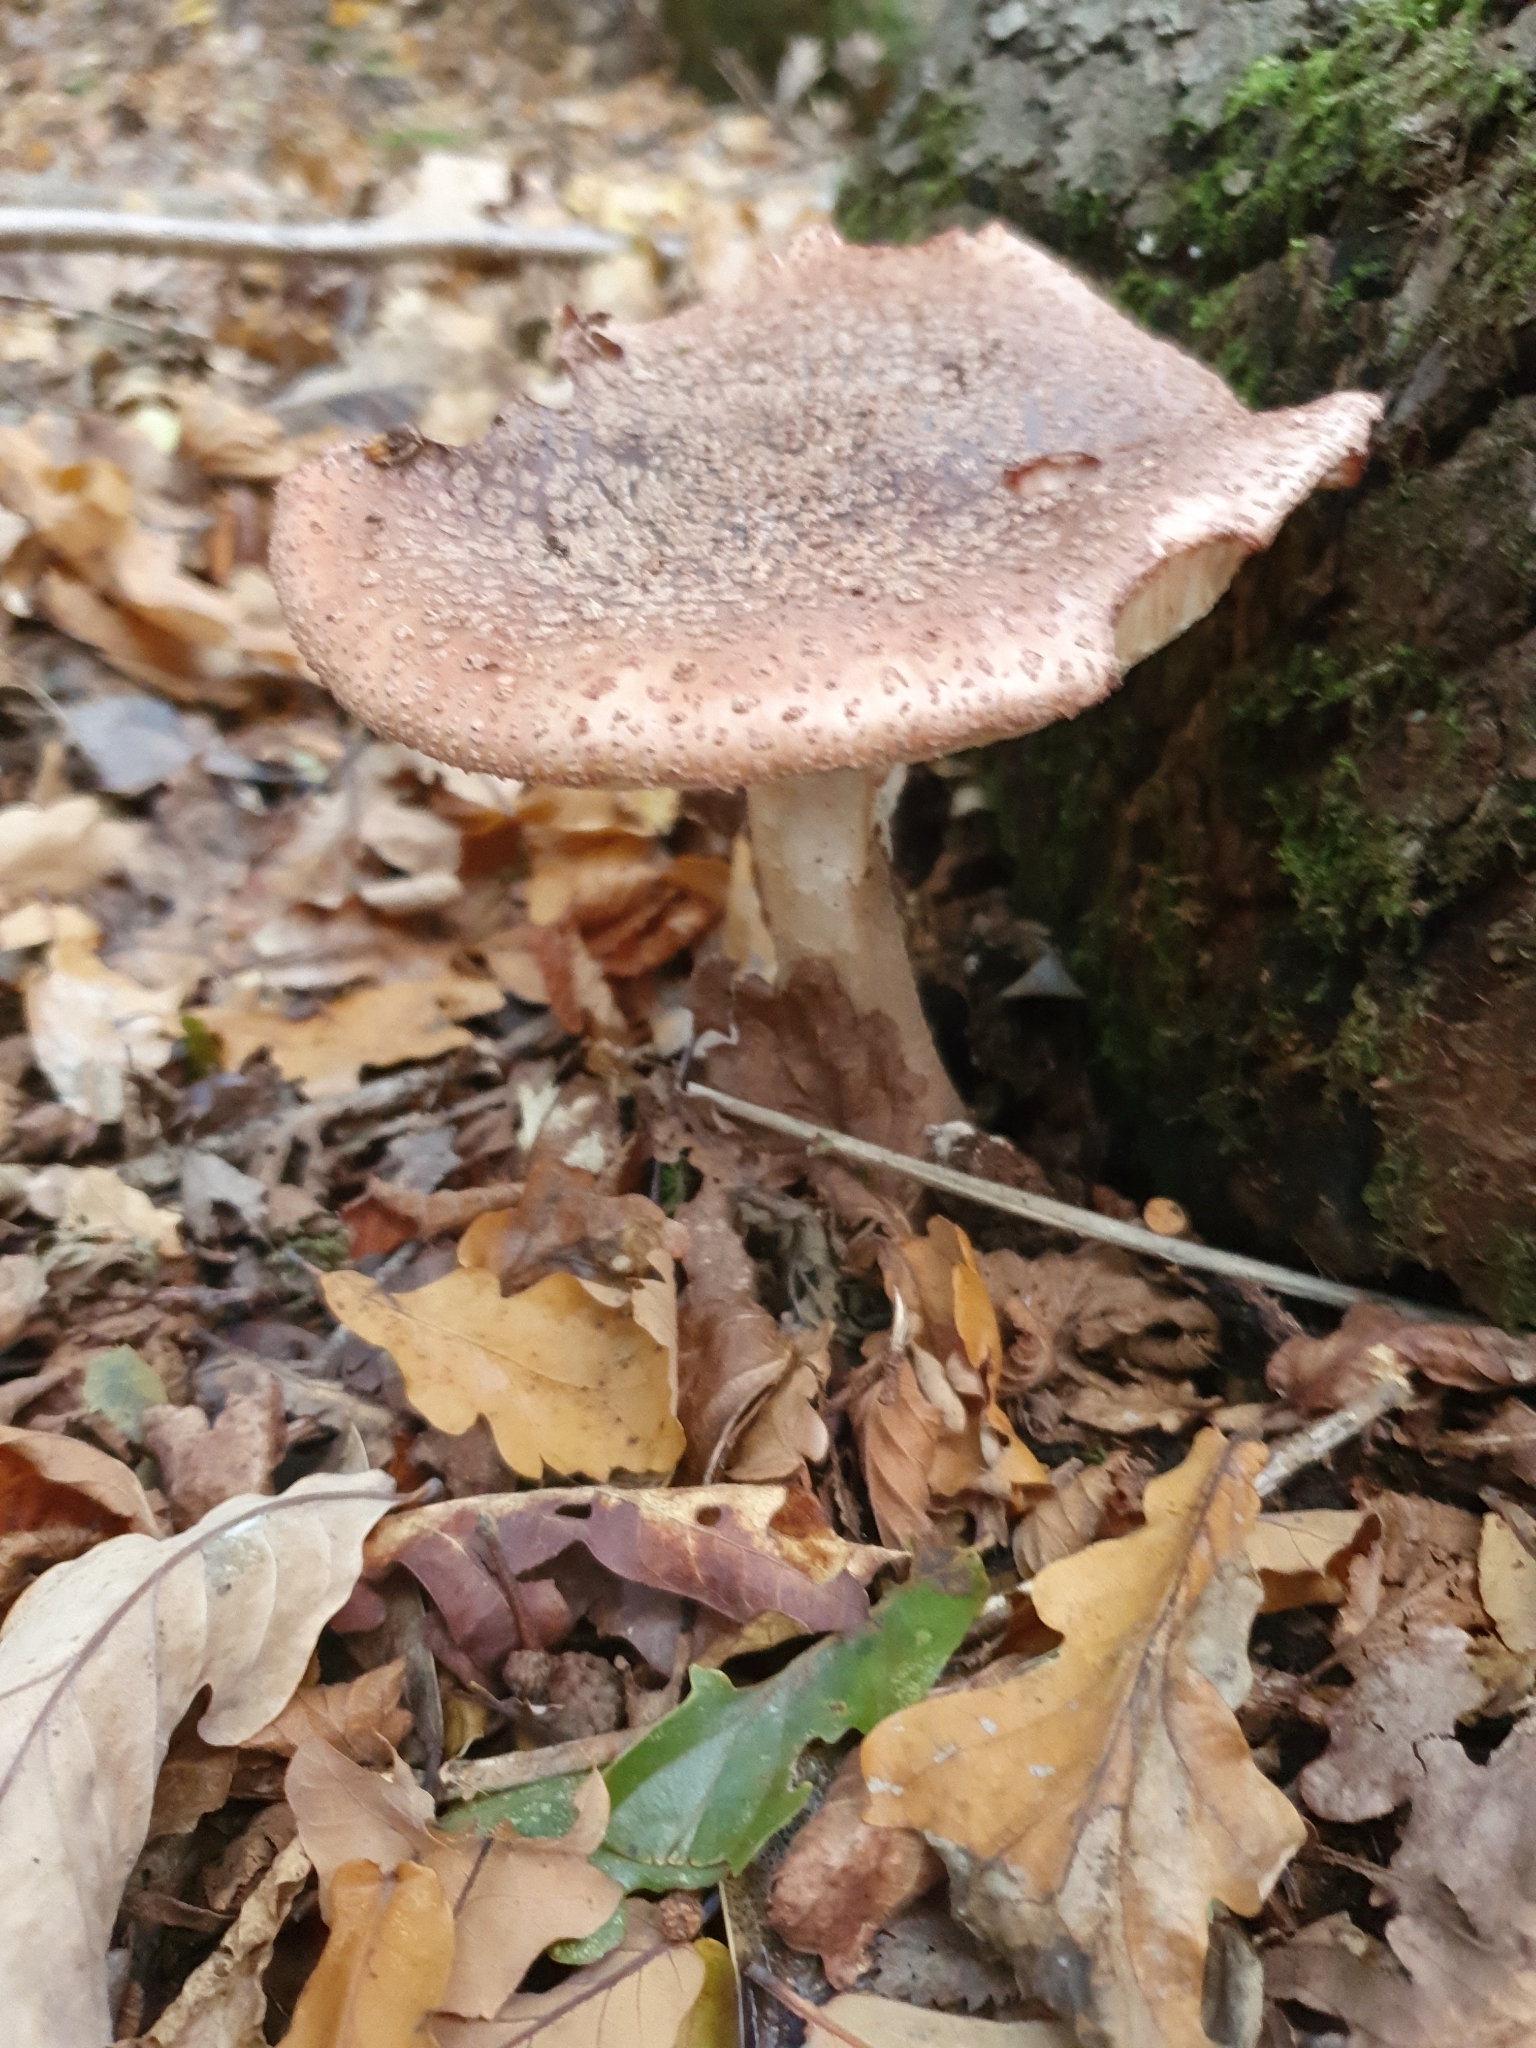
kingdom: Fungi
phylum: Basidiomycota
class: Agaricomycetes
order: Agaricales
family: Amanitaceae
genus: Amanita
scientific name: Amanita rubescens
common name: Blusher
